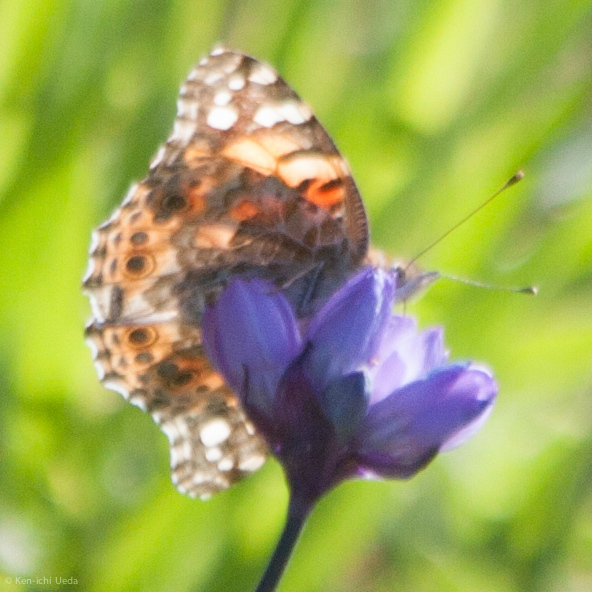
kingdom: Animalia
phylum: Arthropoda
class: Insecta
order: Lepidoptera
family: Nymphalidae
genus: Vanessa
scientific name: Vanessa cardui
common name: Painted lady
